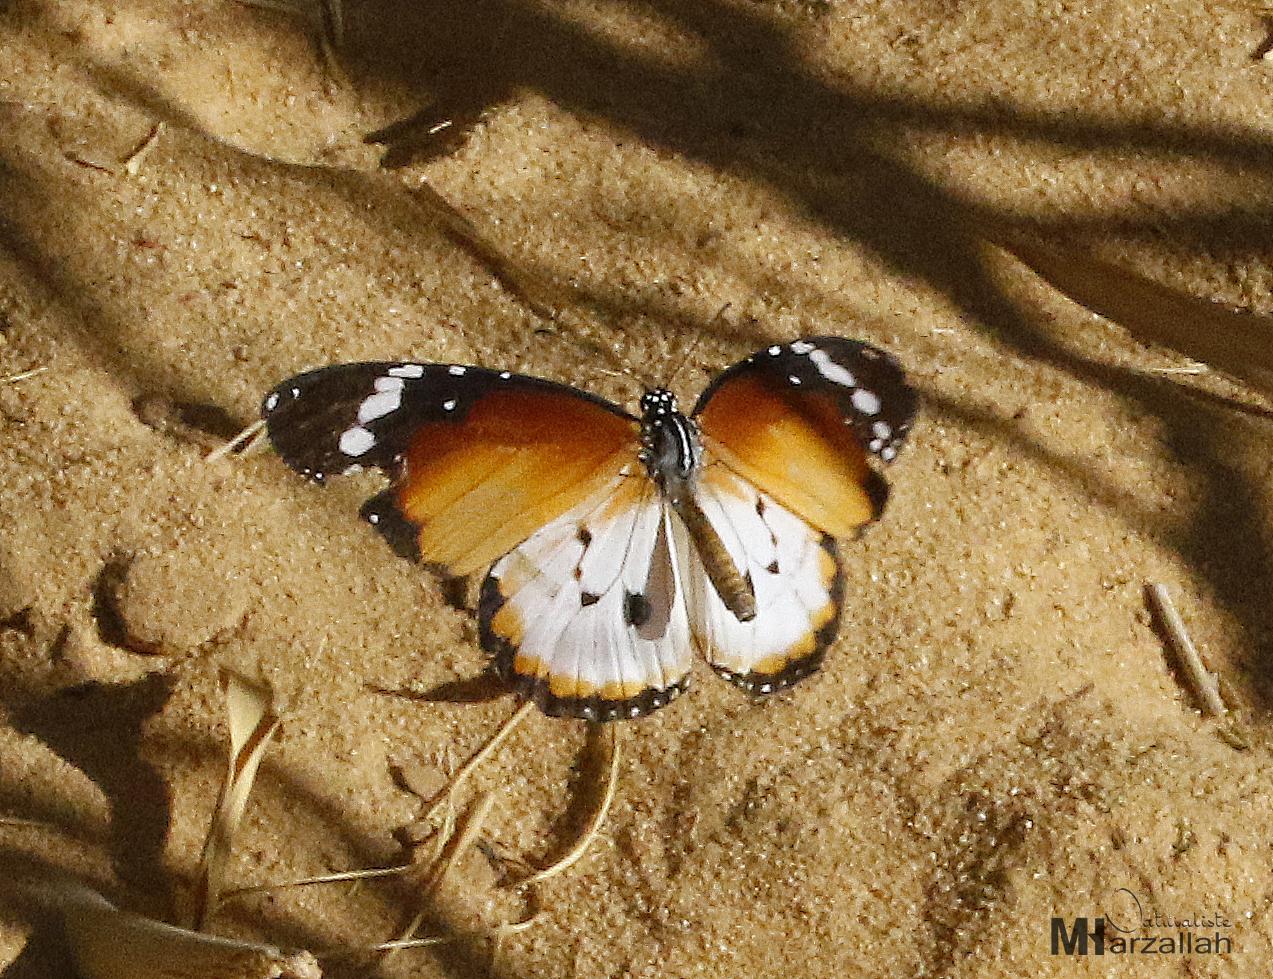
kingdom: Animalia
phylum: Arthropoda
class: Insecta
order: Lepidoptera
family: Nymphalidae
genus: Danaus
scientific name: Danaus chrysippus
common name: Plain tiger
